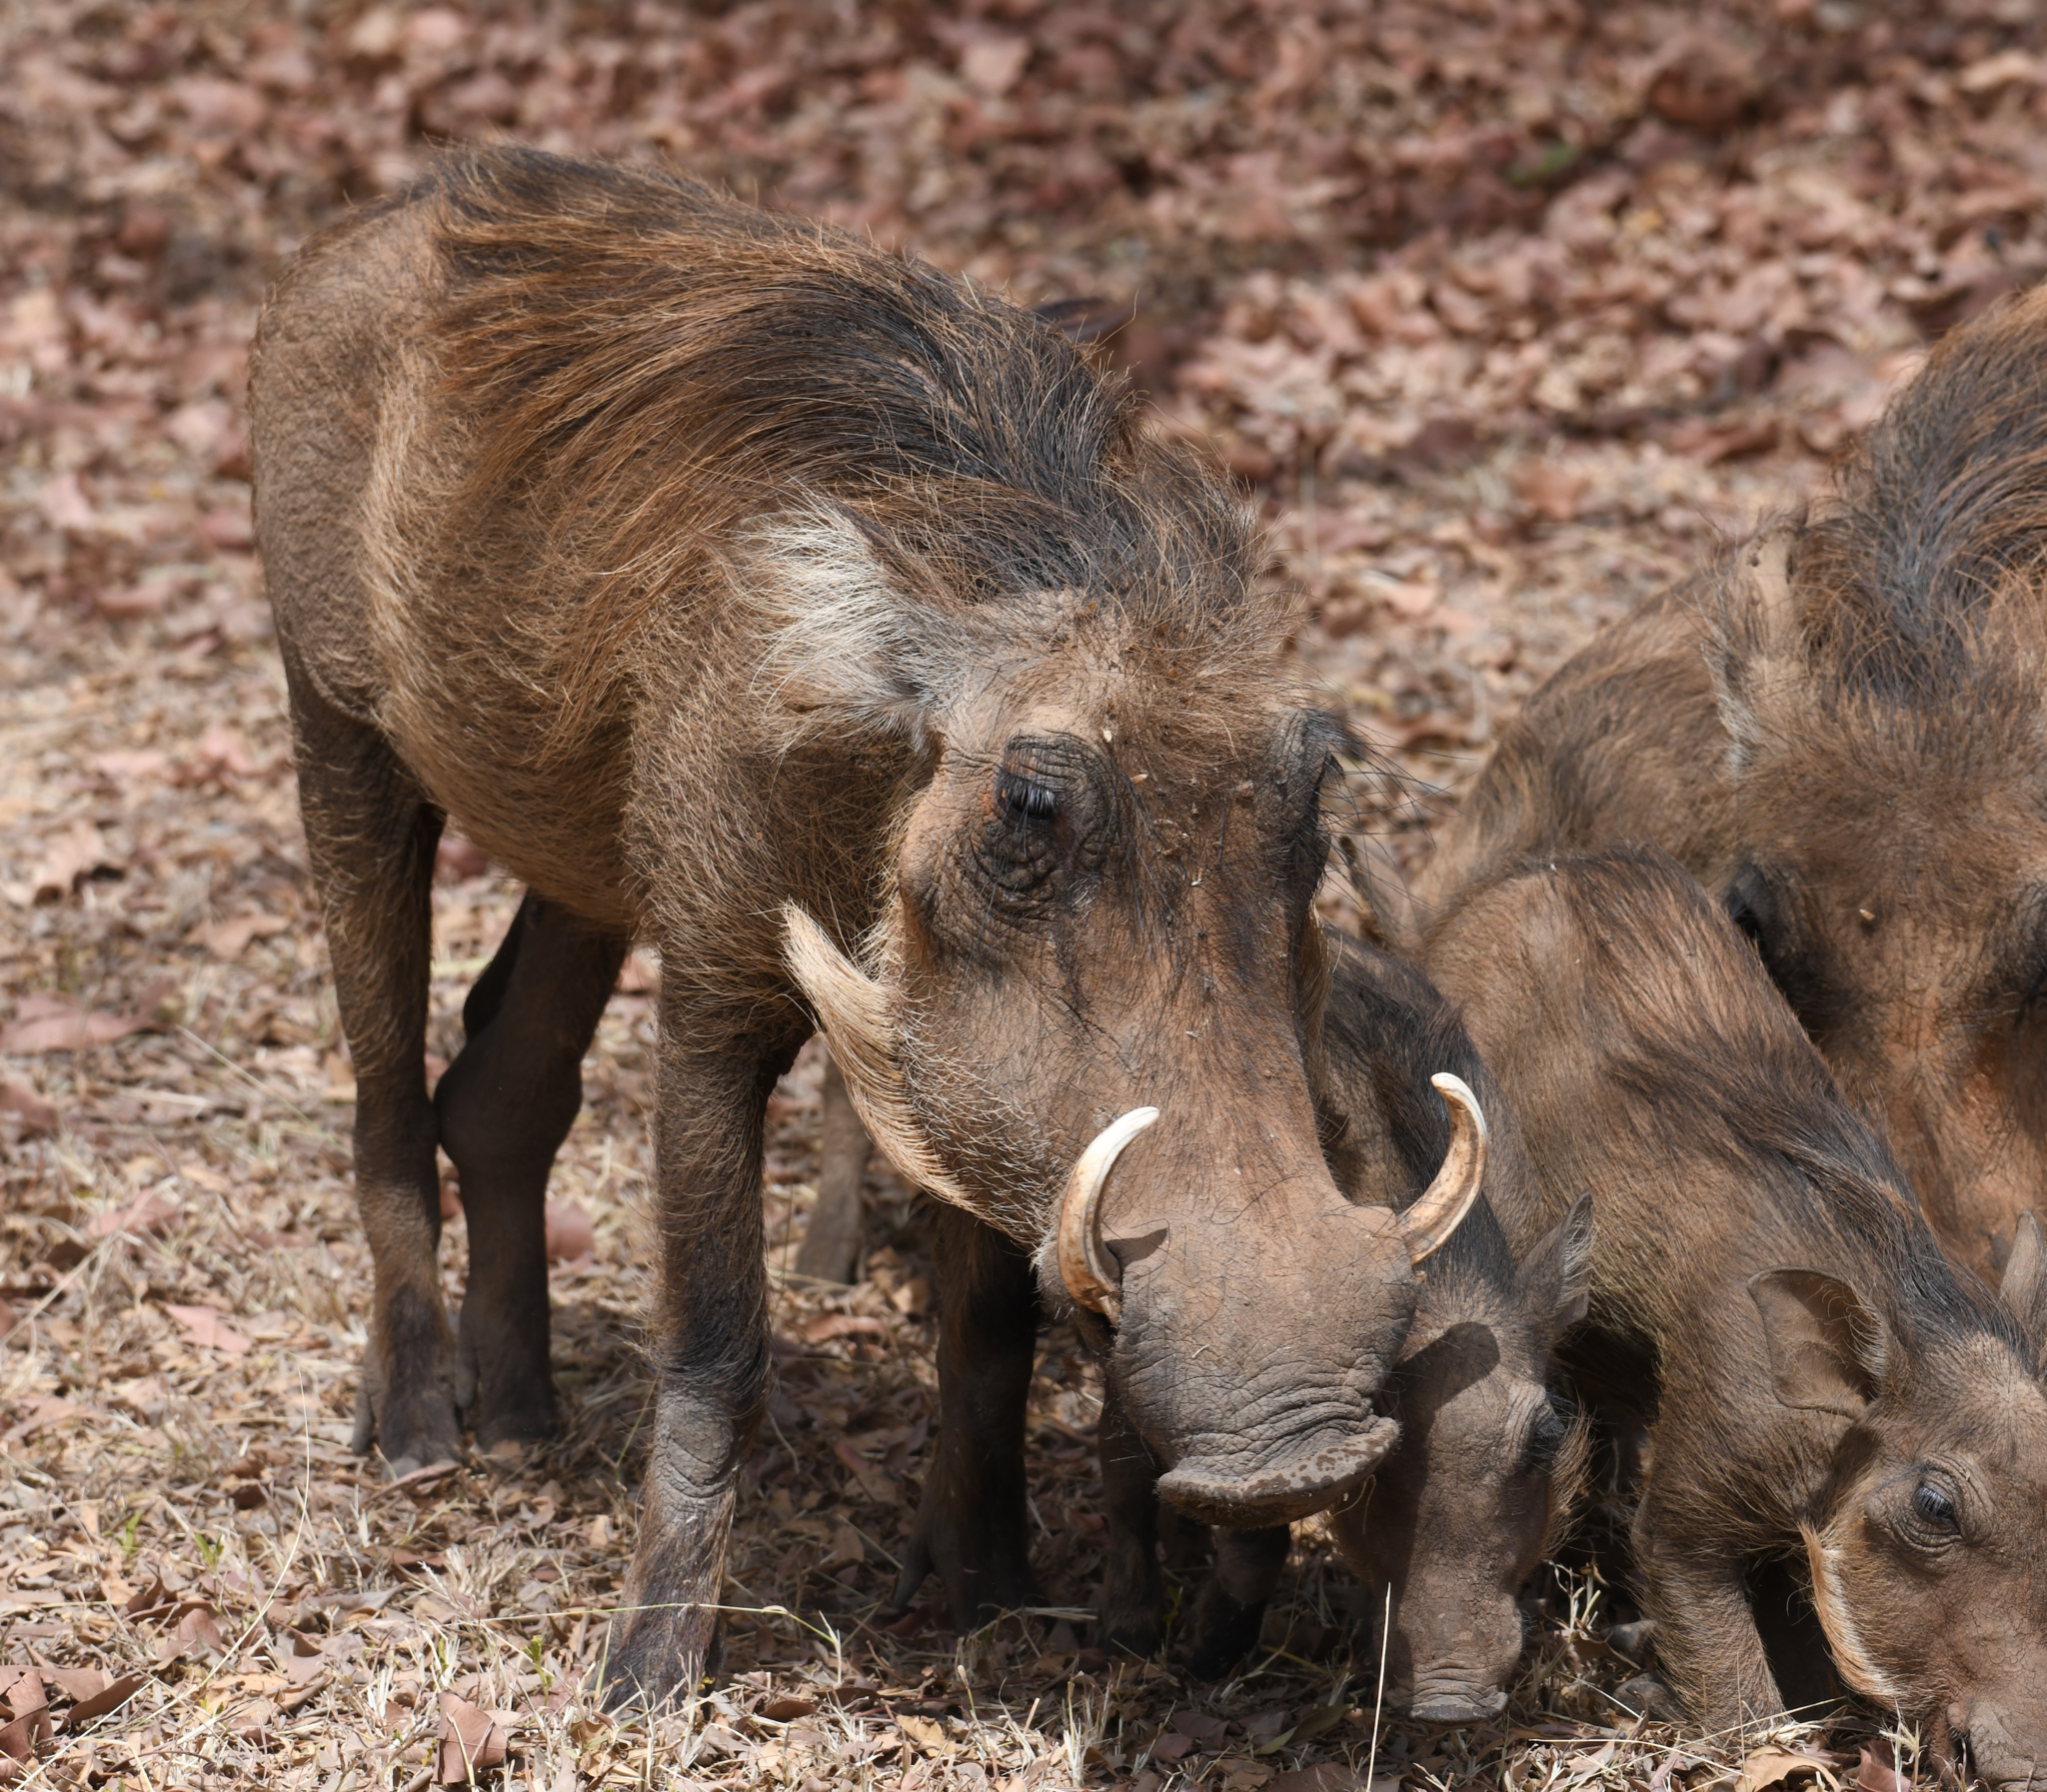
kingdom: Animalia
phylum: Chordata
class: Mammalia
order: Artiodactyla
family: Suidae
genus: Phacochoerus
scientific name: Phacochoerus africanus
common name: Common warthog
